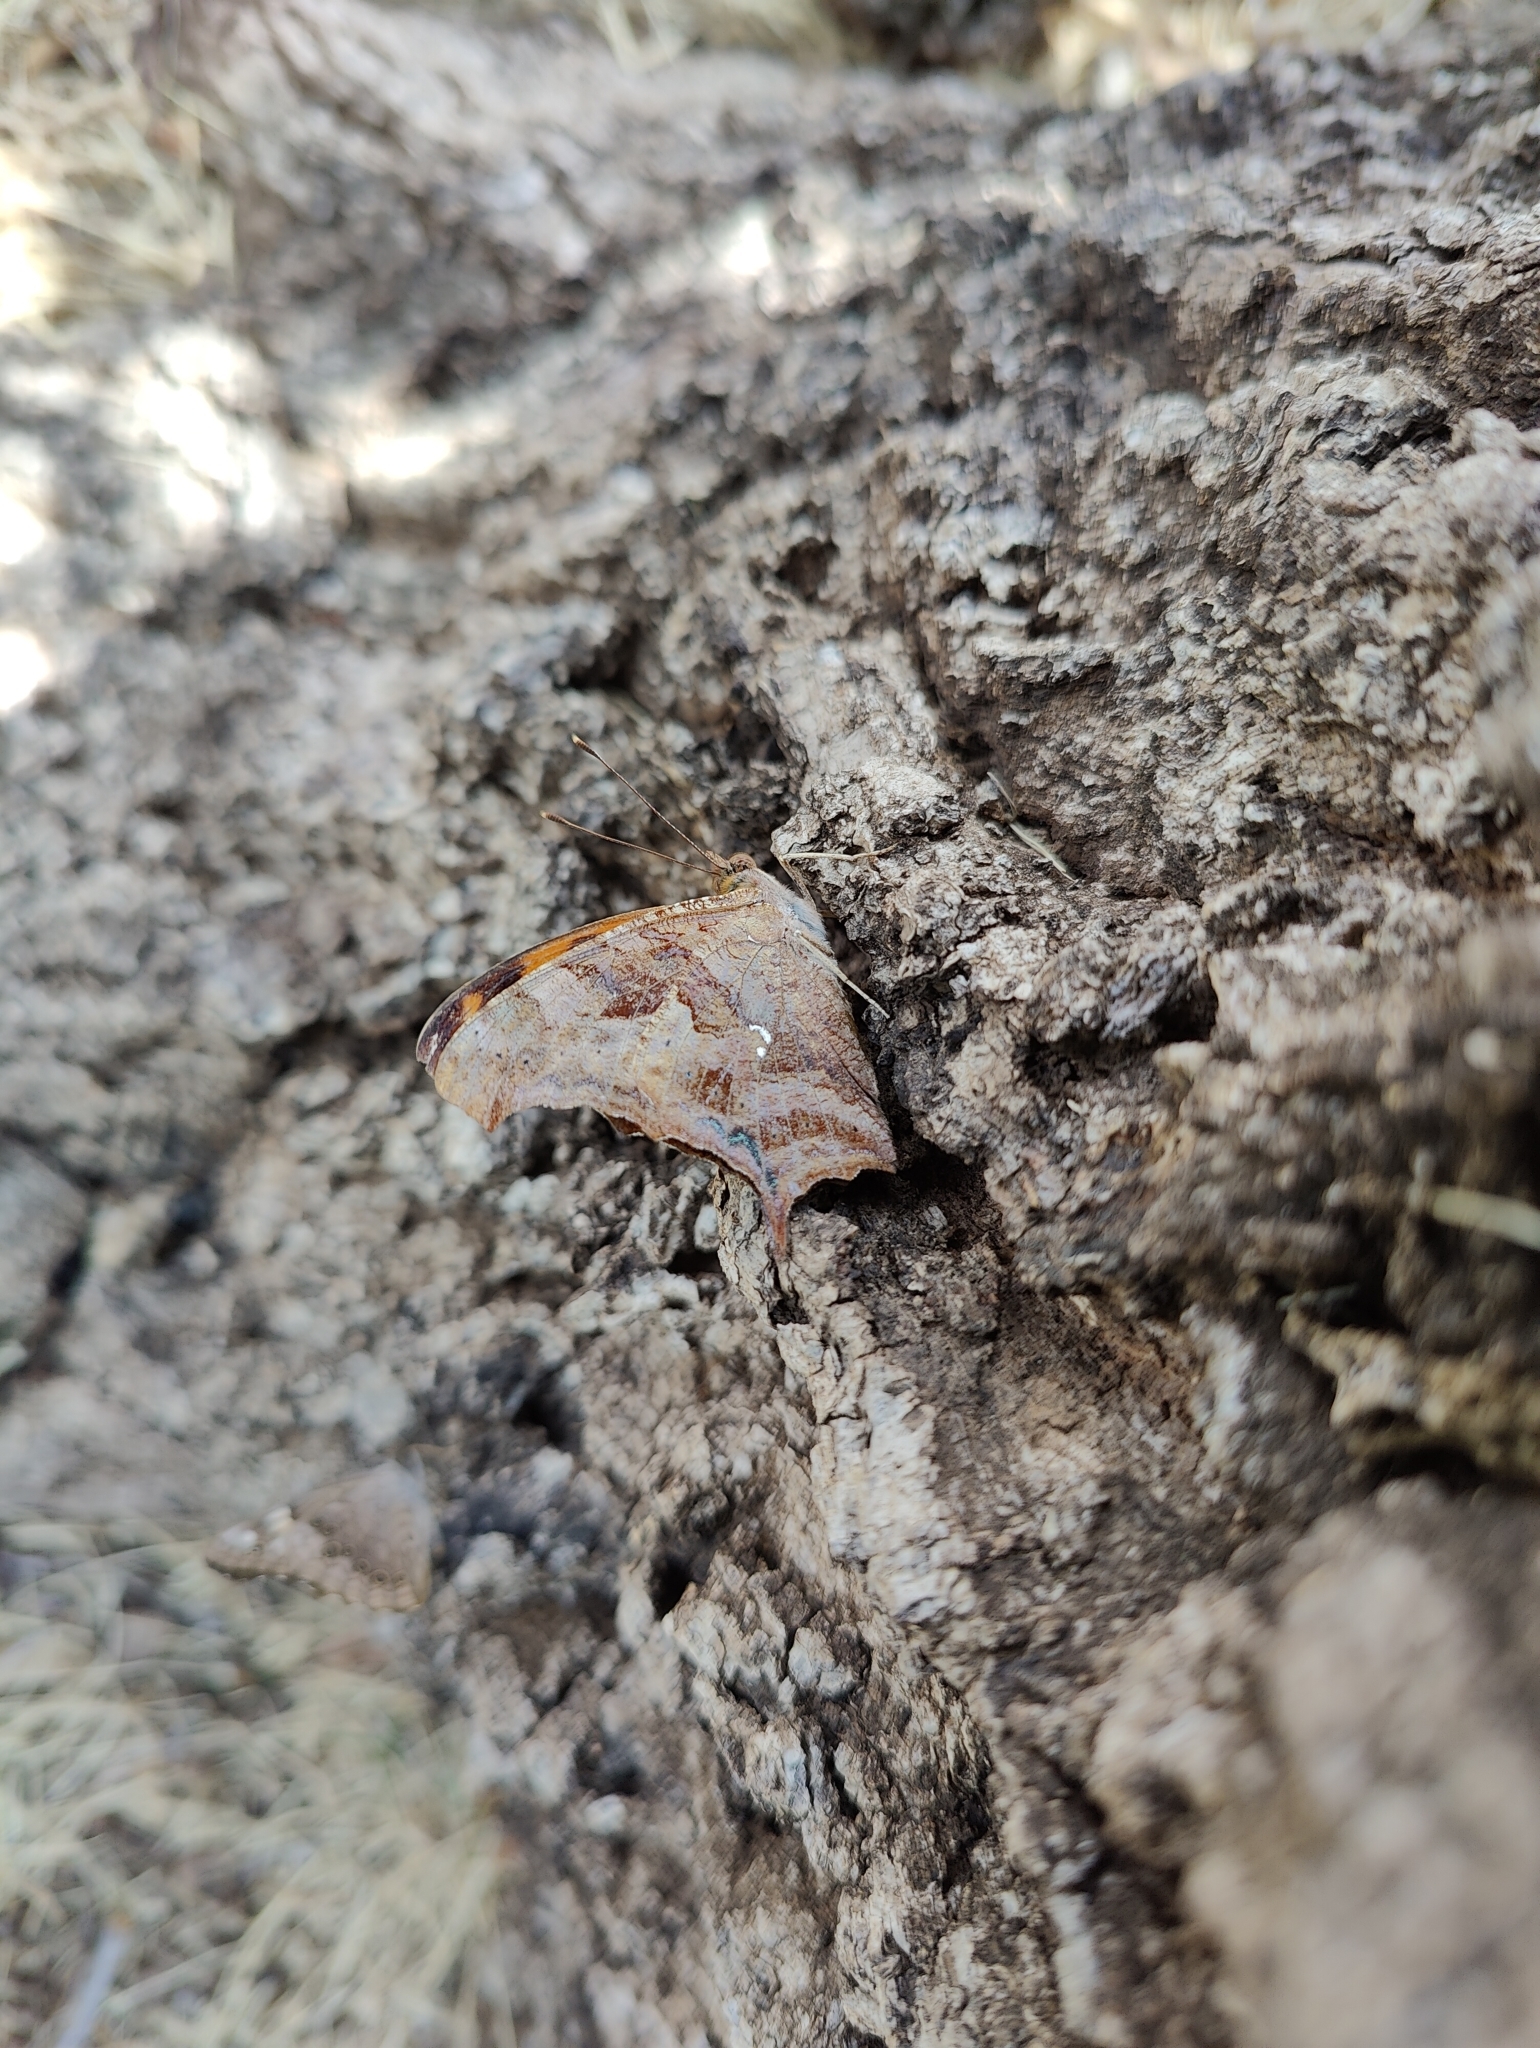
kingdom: Animalia
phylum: Arthropoda
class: Insecta
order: Lepidoptera
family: Nymphalidae
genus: Polygonia
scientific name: Polygonia interrogationis
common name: Question mark
